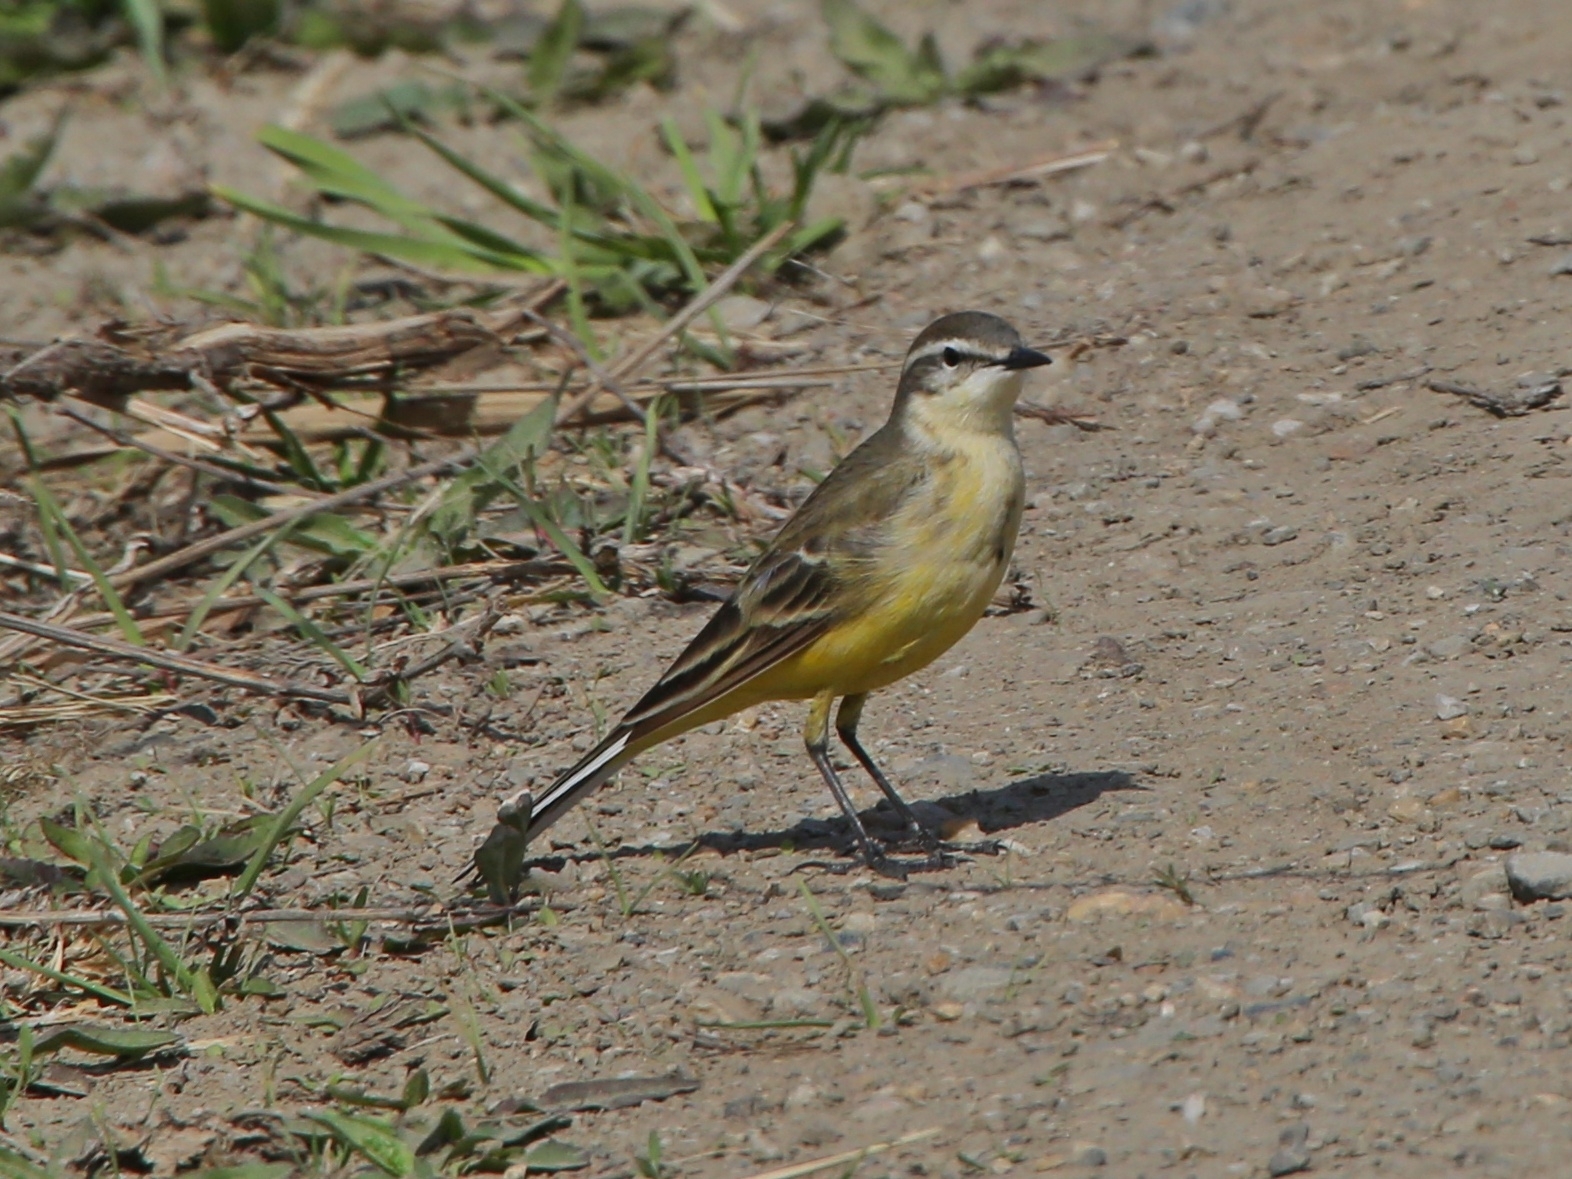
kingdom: Animalia
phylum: Chordata
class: Aves
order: Passeriformes
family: Motacillidae
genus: Motacilla
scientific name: Motacilla flava
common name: Western yellow wagtail
